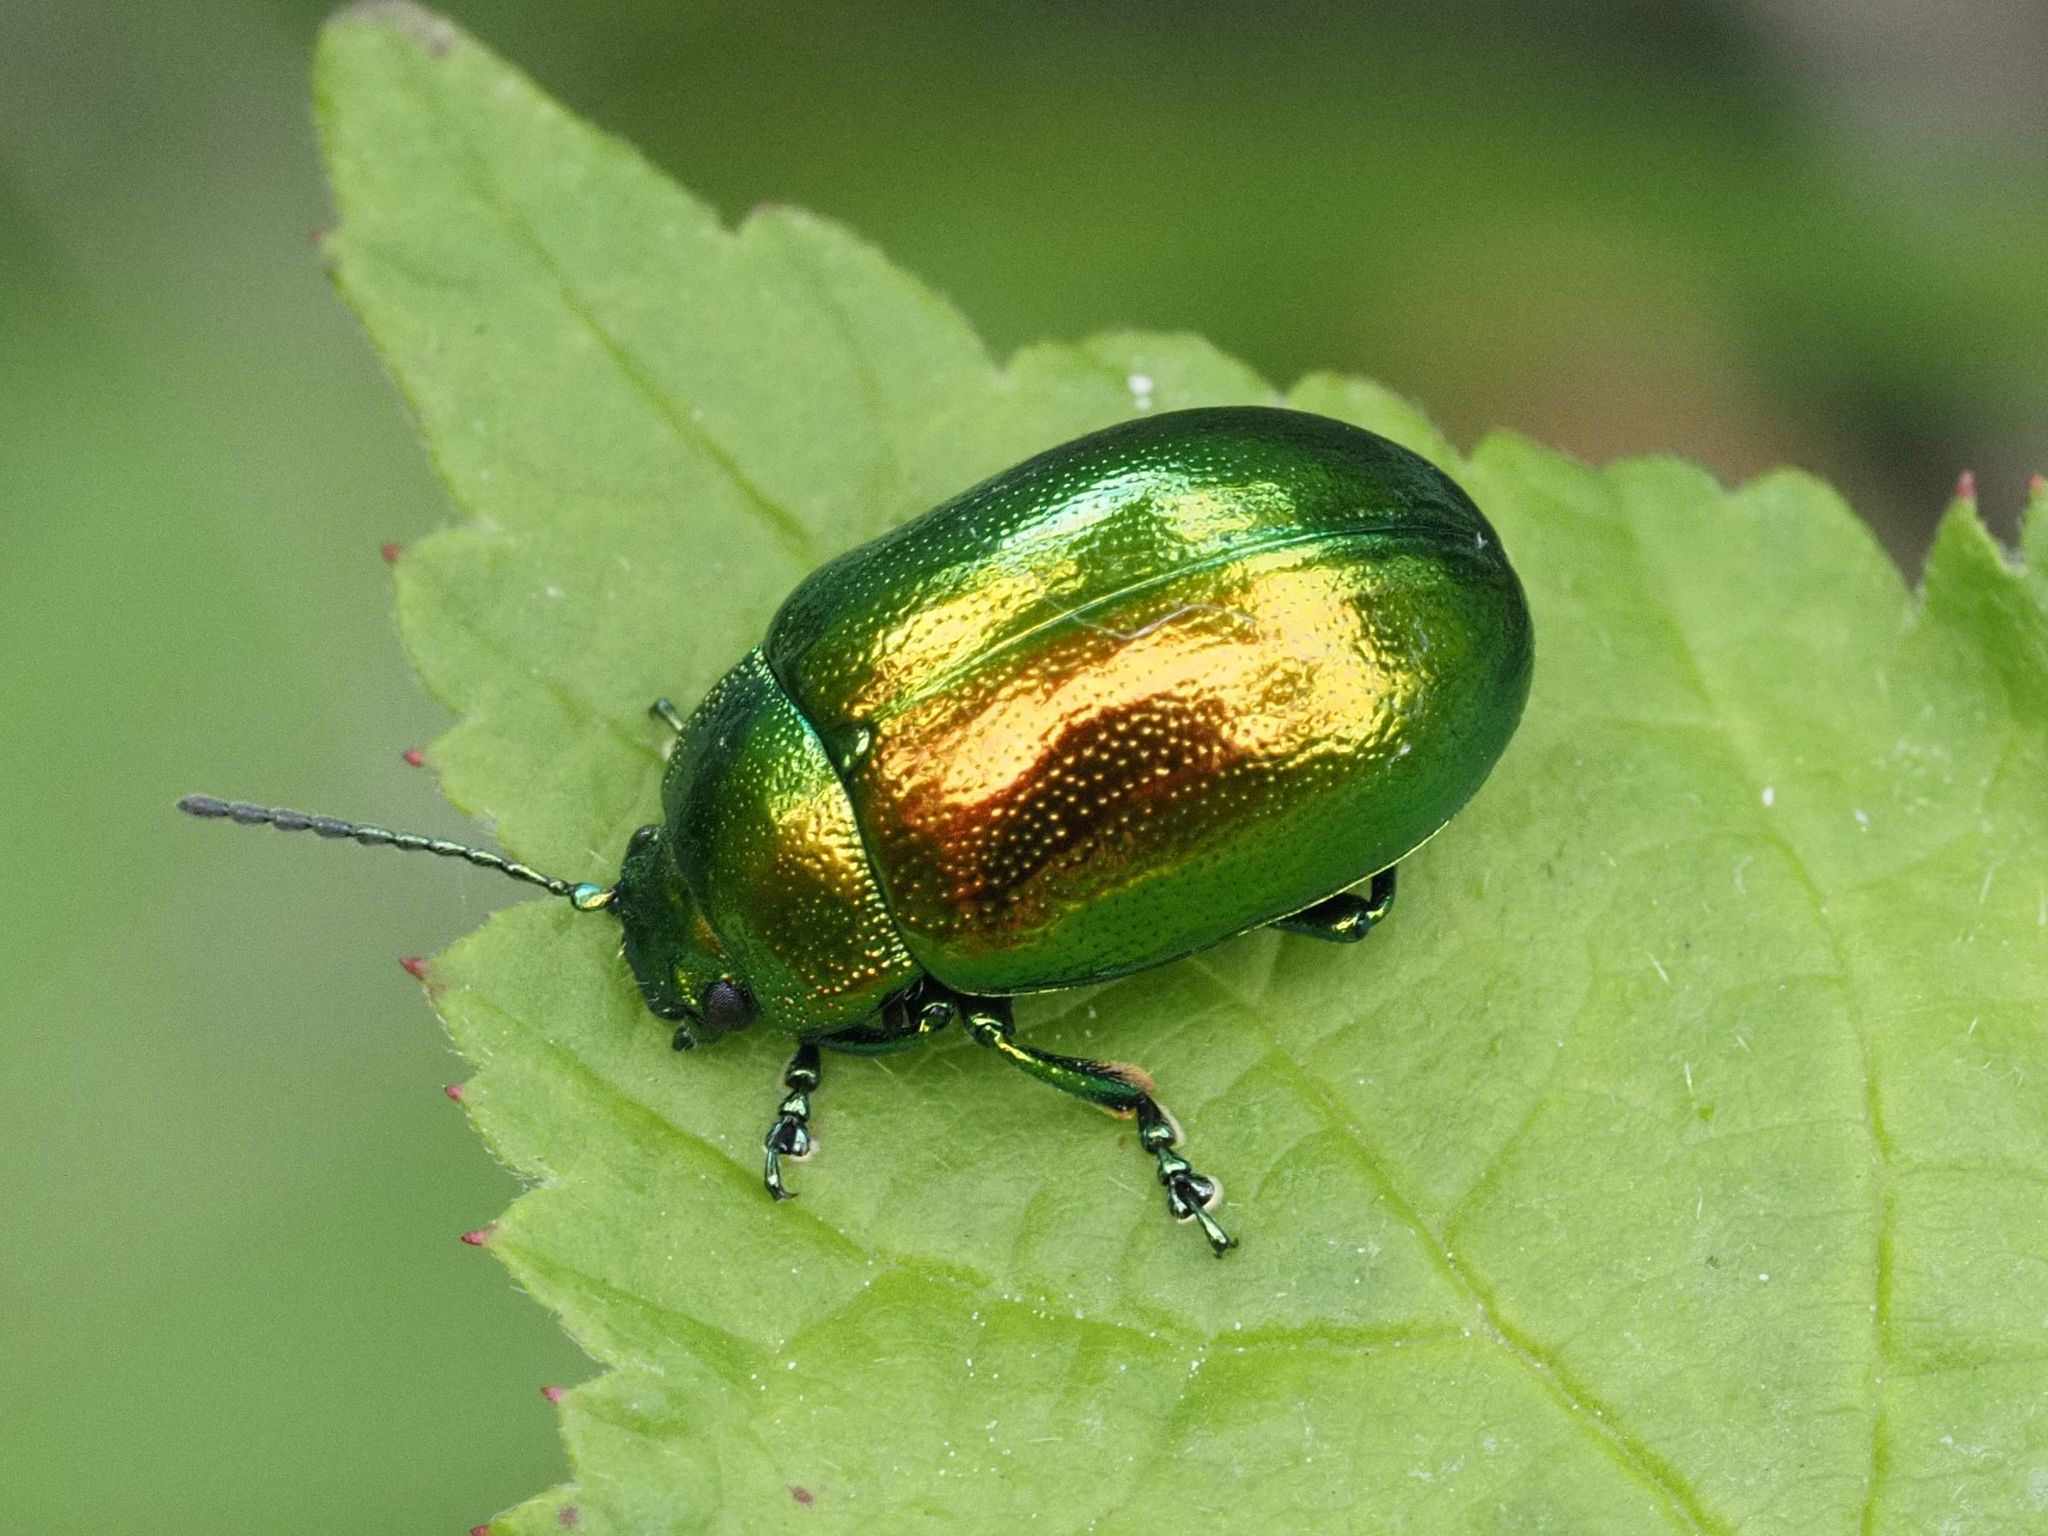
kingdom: Animalia
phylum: Arthropoda
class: Insecta
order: Coleoptera
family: Chrysomelidae
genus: Chrysolina
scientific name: Chrysolina herbacea
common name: Mint leaf beatle
